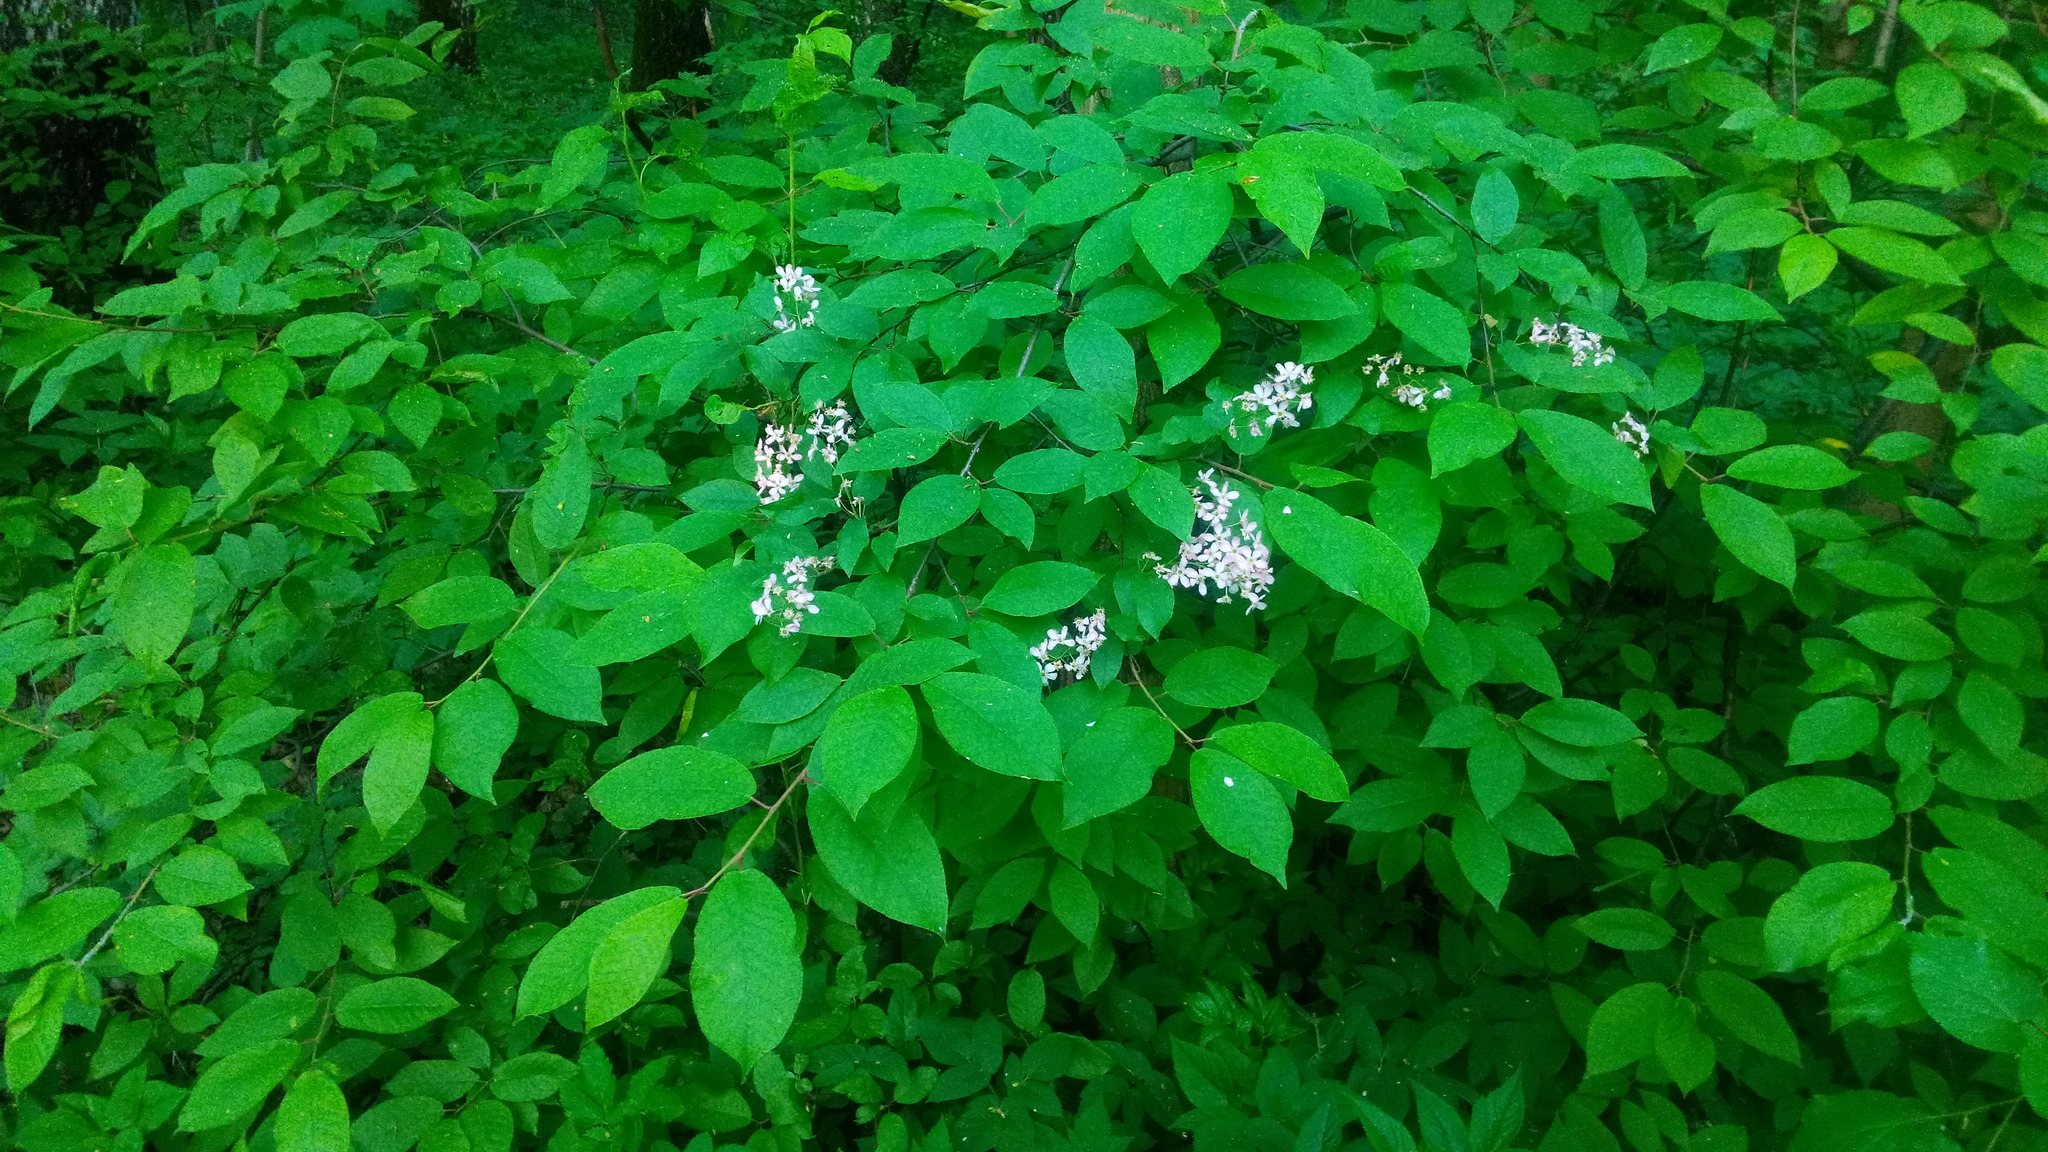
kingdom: Plantae
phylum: Tracheophyta
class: Magnoliopsida
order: Rosales
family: Rosaceae
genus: Prunus
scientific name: Prunus padus
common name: Bird cherry
